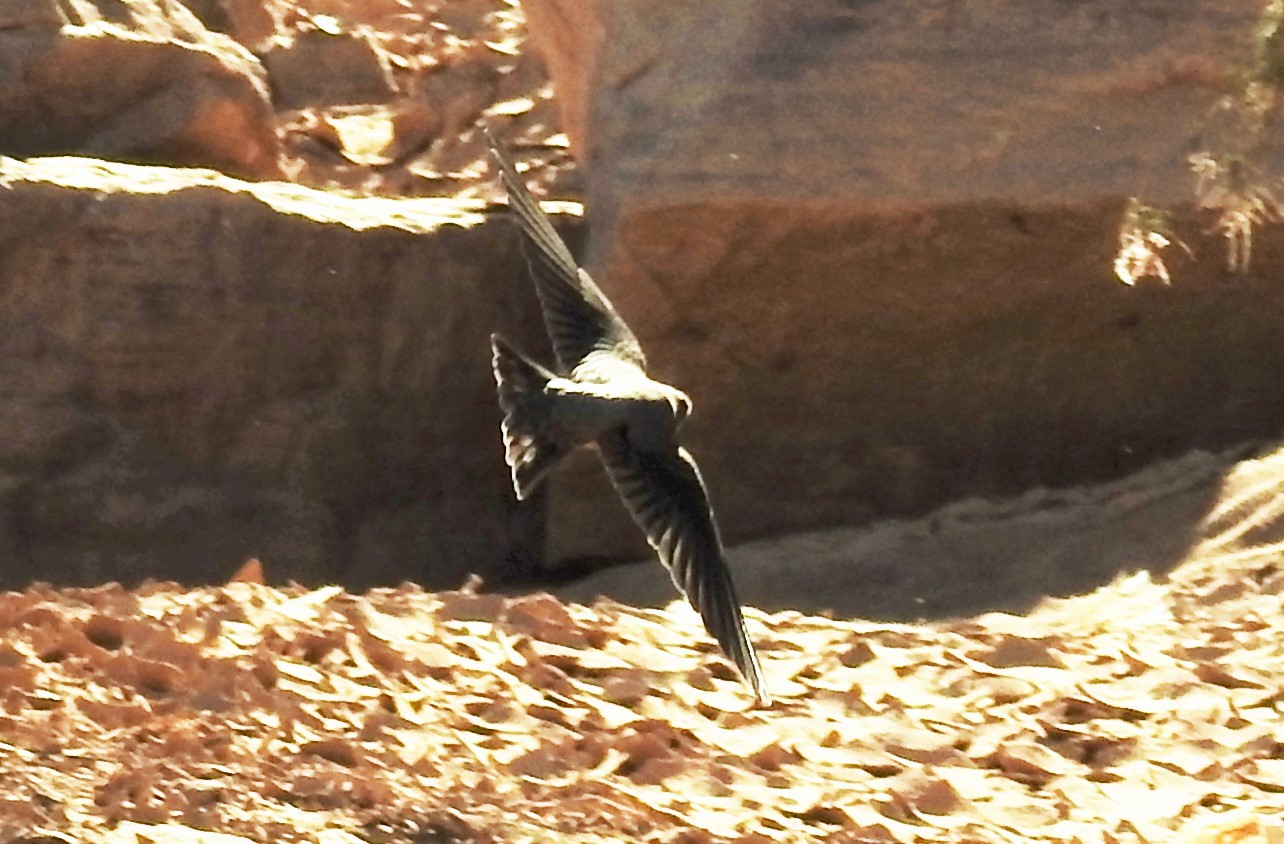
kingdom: Animalia
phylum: Chordata
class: Aves
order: Passeriformes
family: Hirundinidae
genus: Ptyonoprogne
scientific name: Ptyonoprogne fuligula
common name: Rock martin
